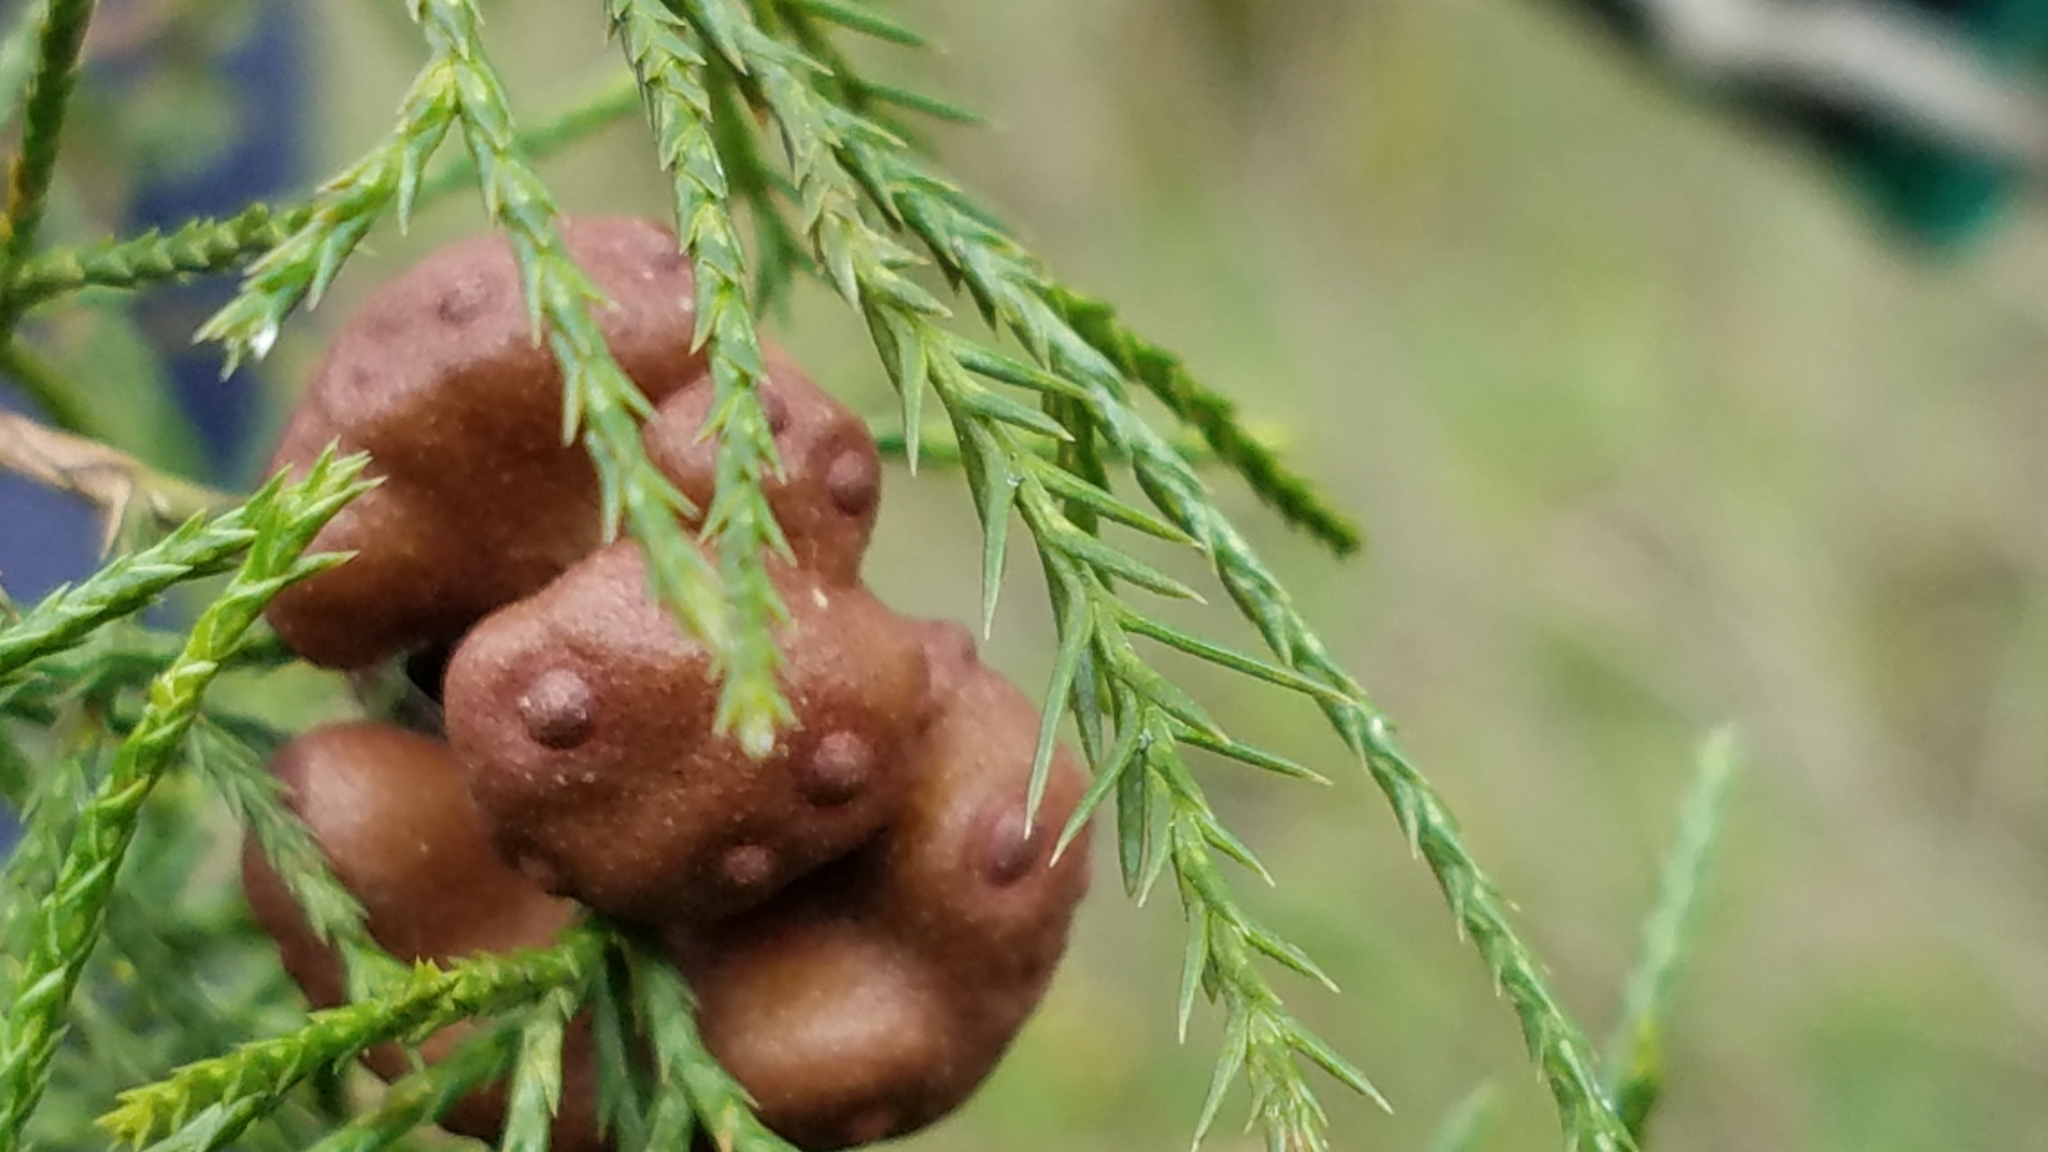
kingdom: Fungi
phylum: Basidiomycota
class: Pucciniomycetes
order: Pucciniales
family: Gymnosporangiaceae
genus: Gymnosporangium
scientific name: Gymnosporangium juniperi-virginianae
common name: Juniper-apple rust
